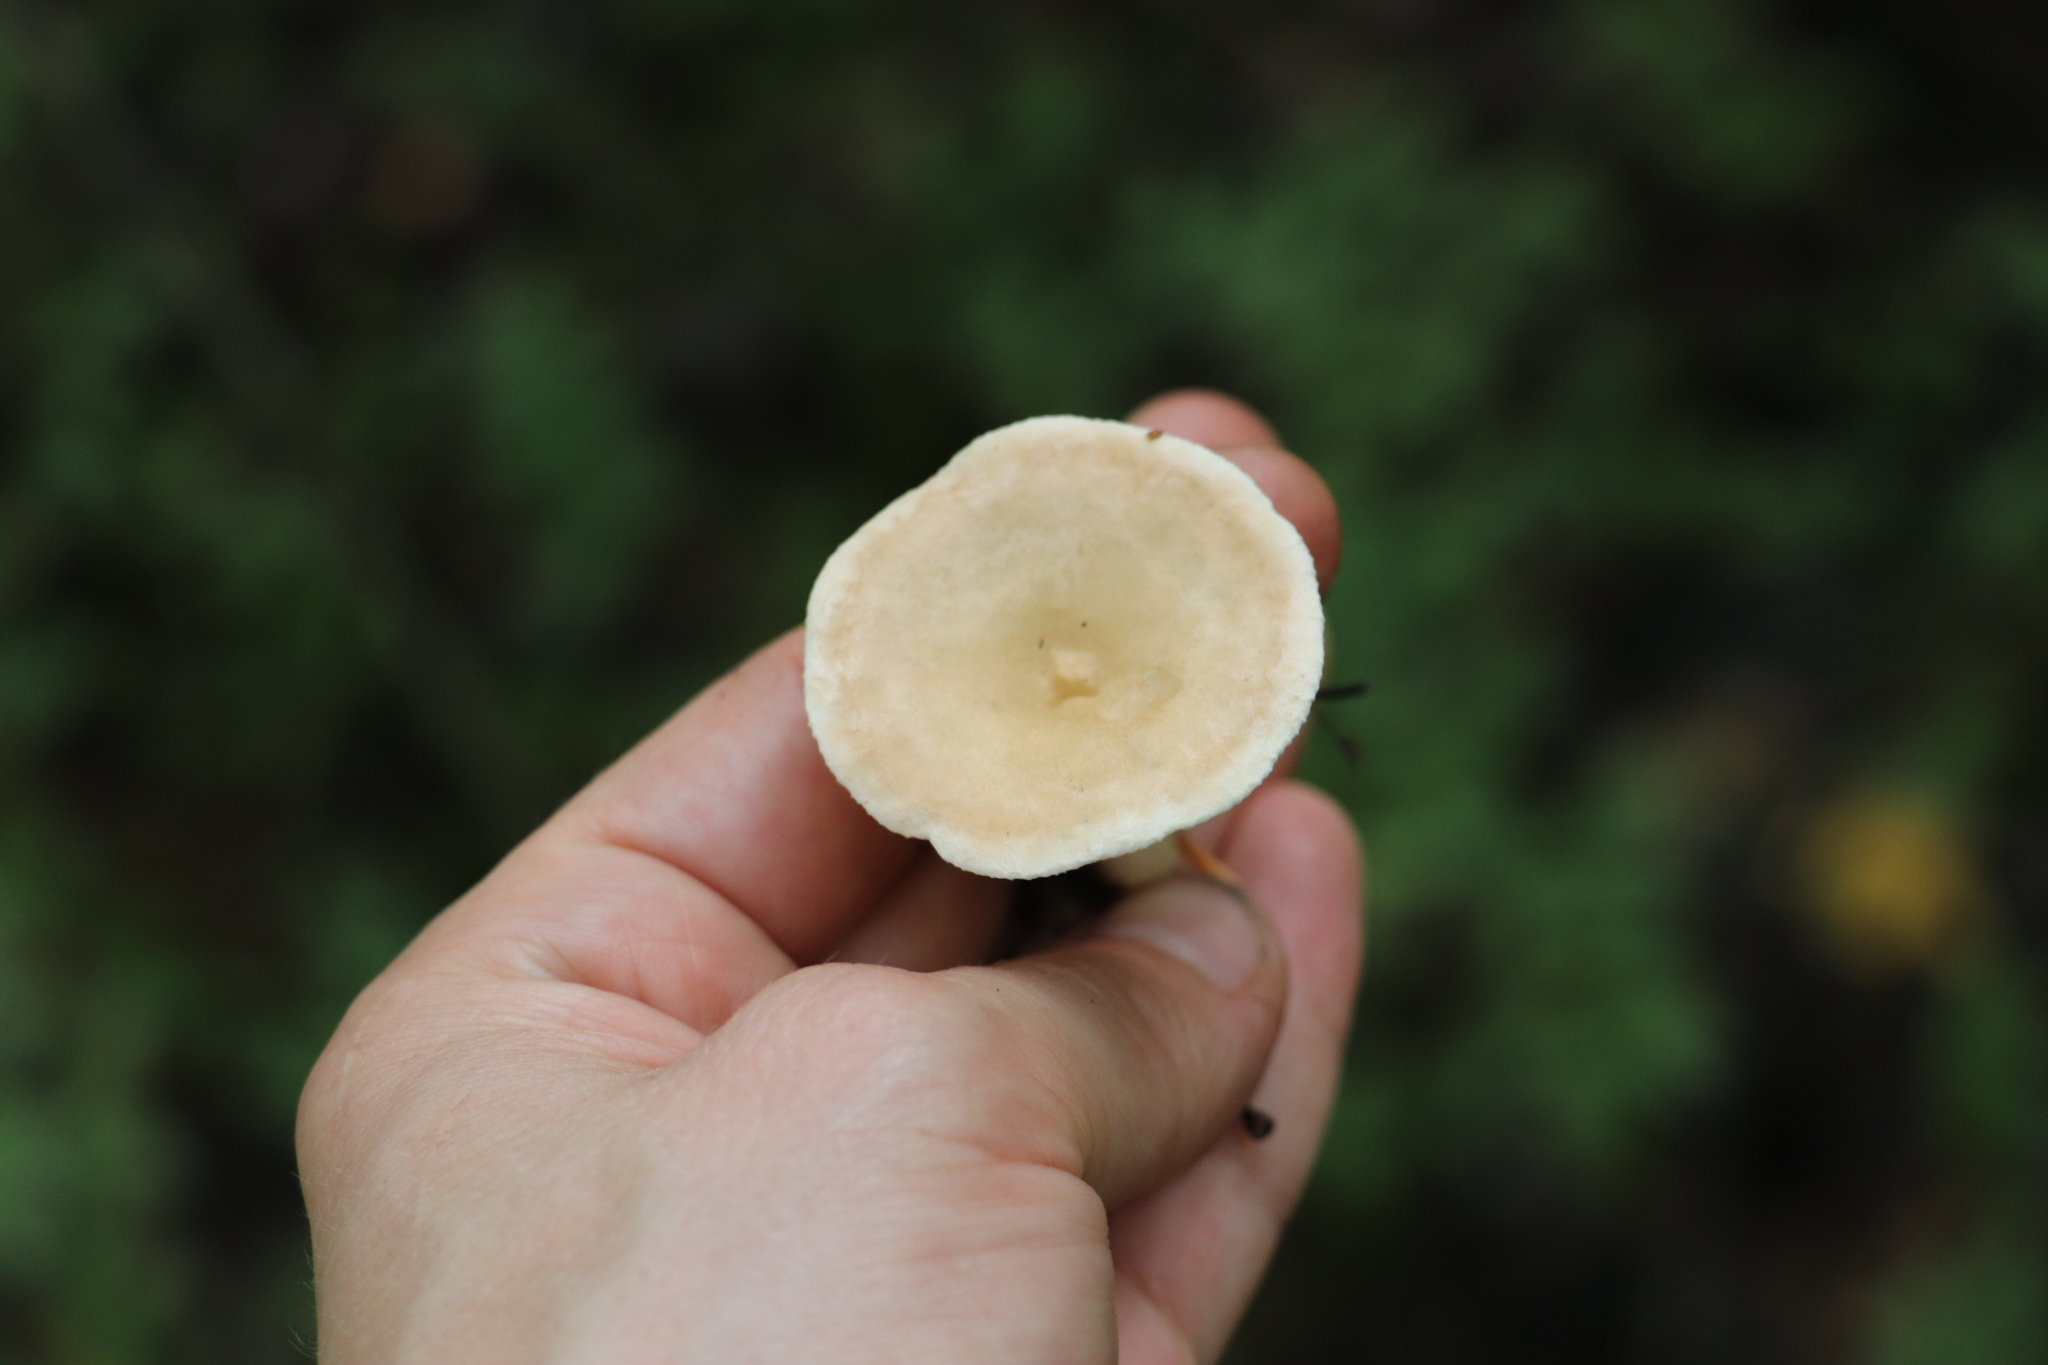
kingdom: Fungi
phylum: Basidiomycota
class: Agaricomycetes
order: Agaricales
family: Tricholomataceae
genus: Infundibulicybe
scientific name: Infundibulicybe gibba
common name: Common funnel
